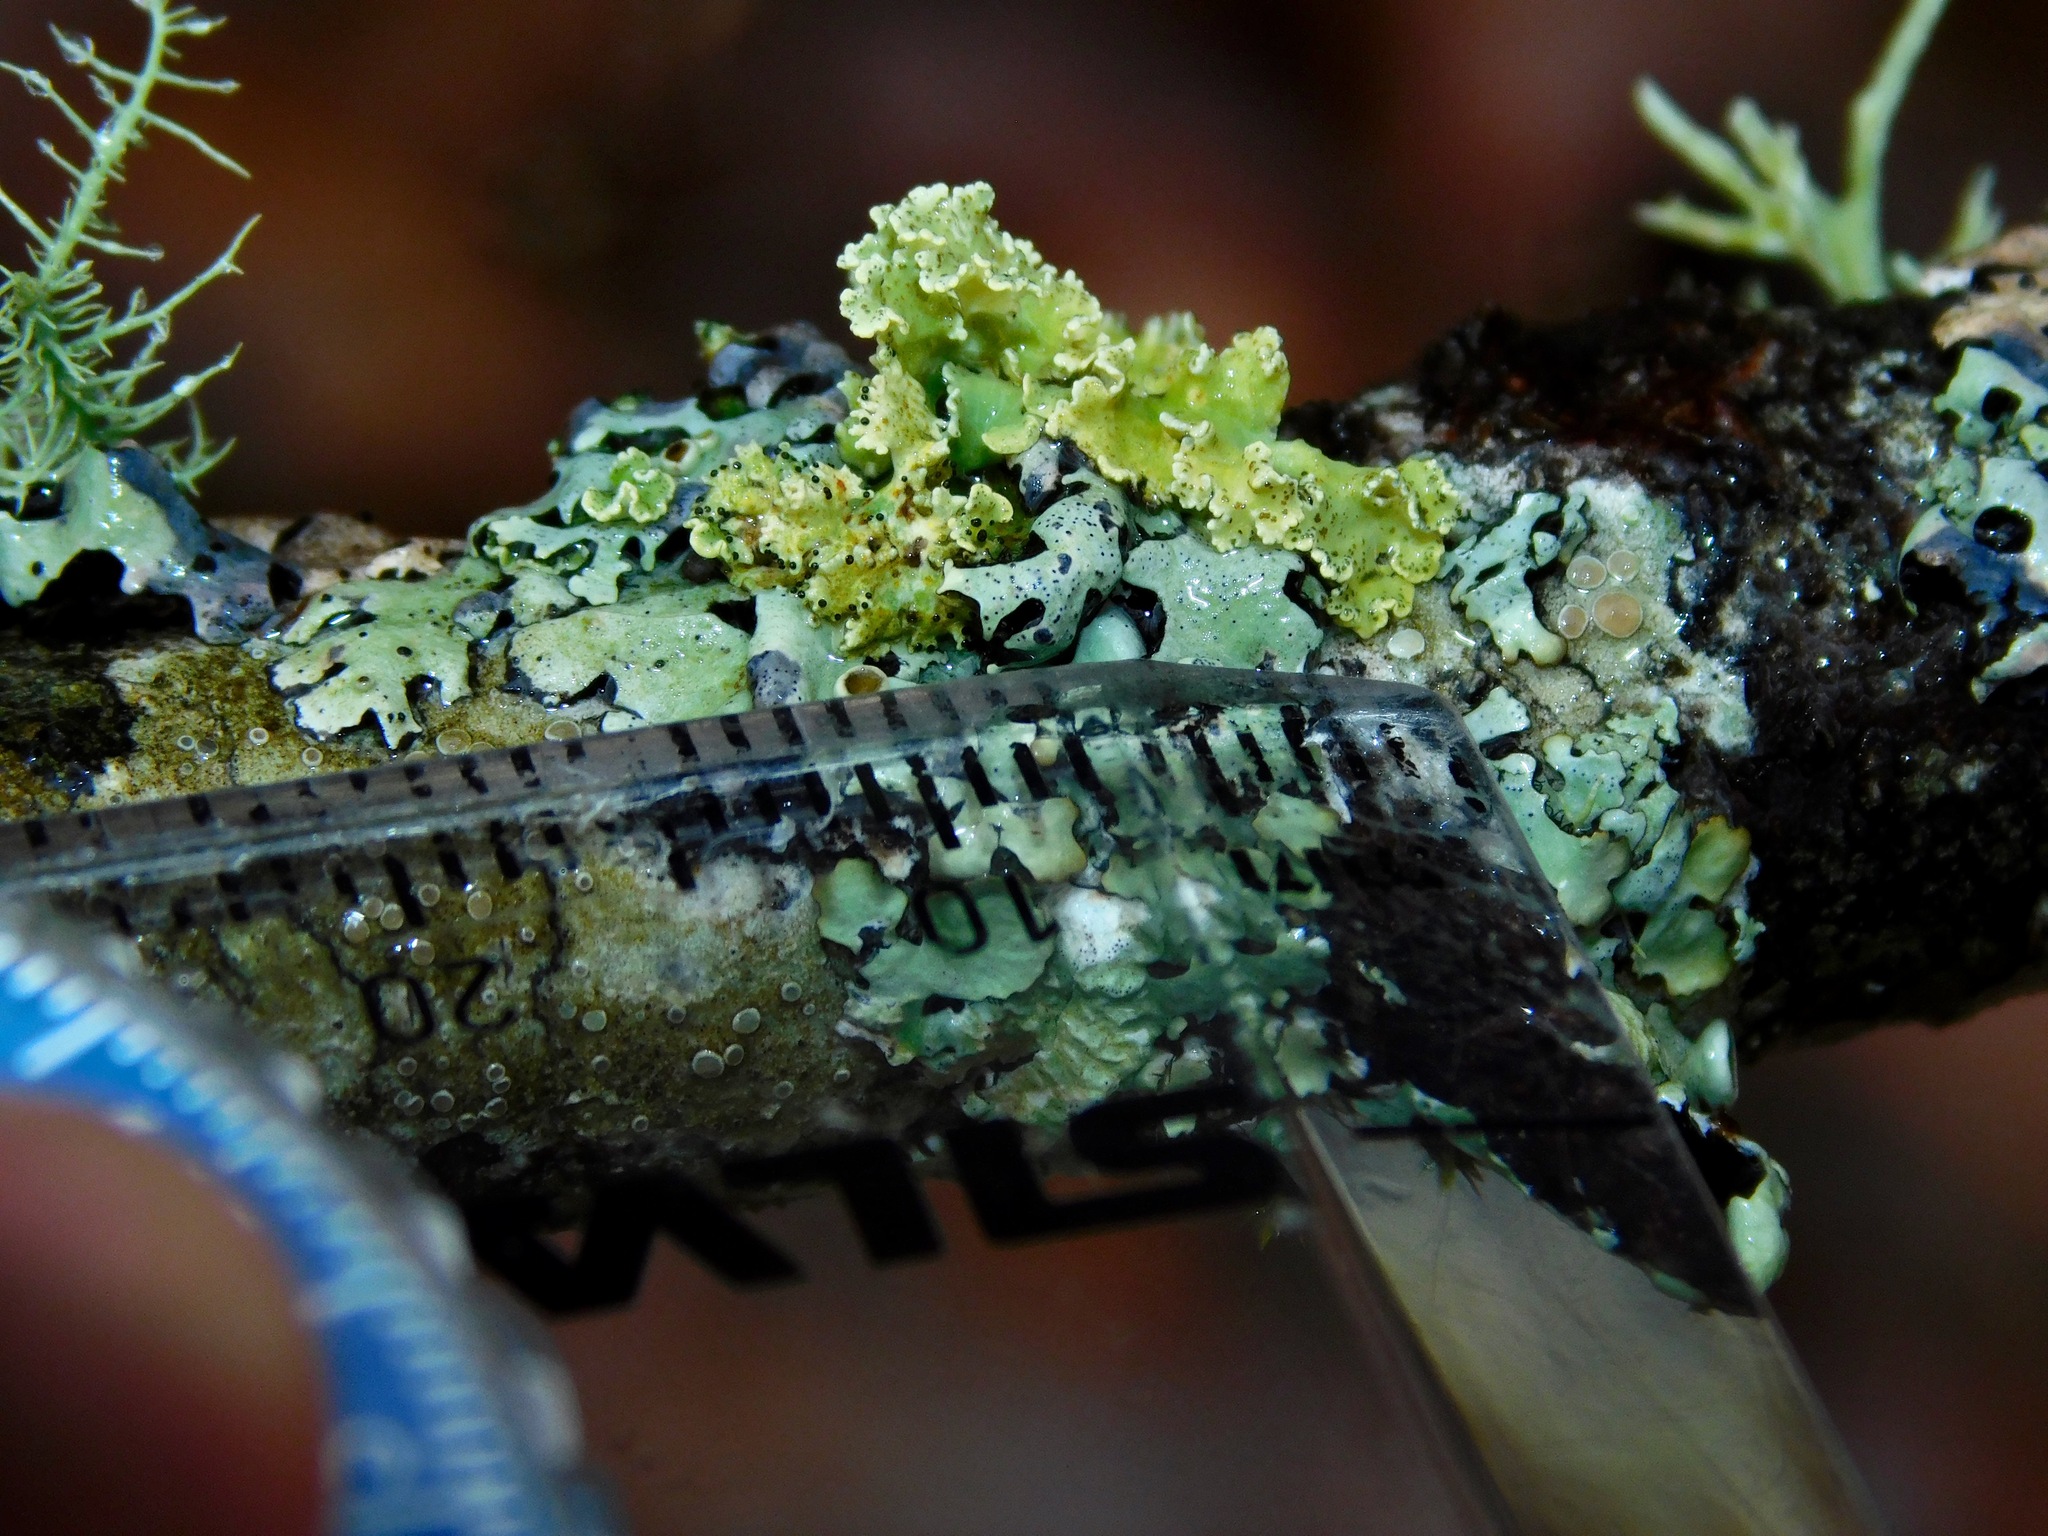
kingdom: Fungi
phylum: Ascomycota
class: Lecanoromycetes
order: Lecanorales
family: Parmeliaceae
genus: Vulpicida
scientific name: Vulpicida viridis
